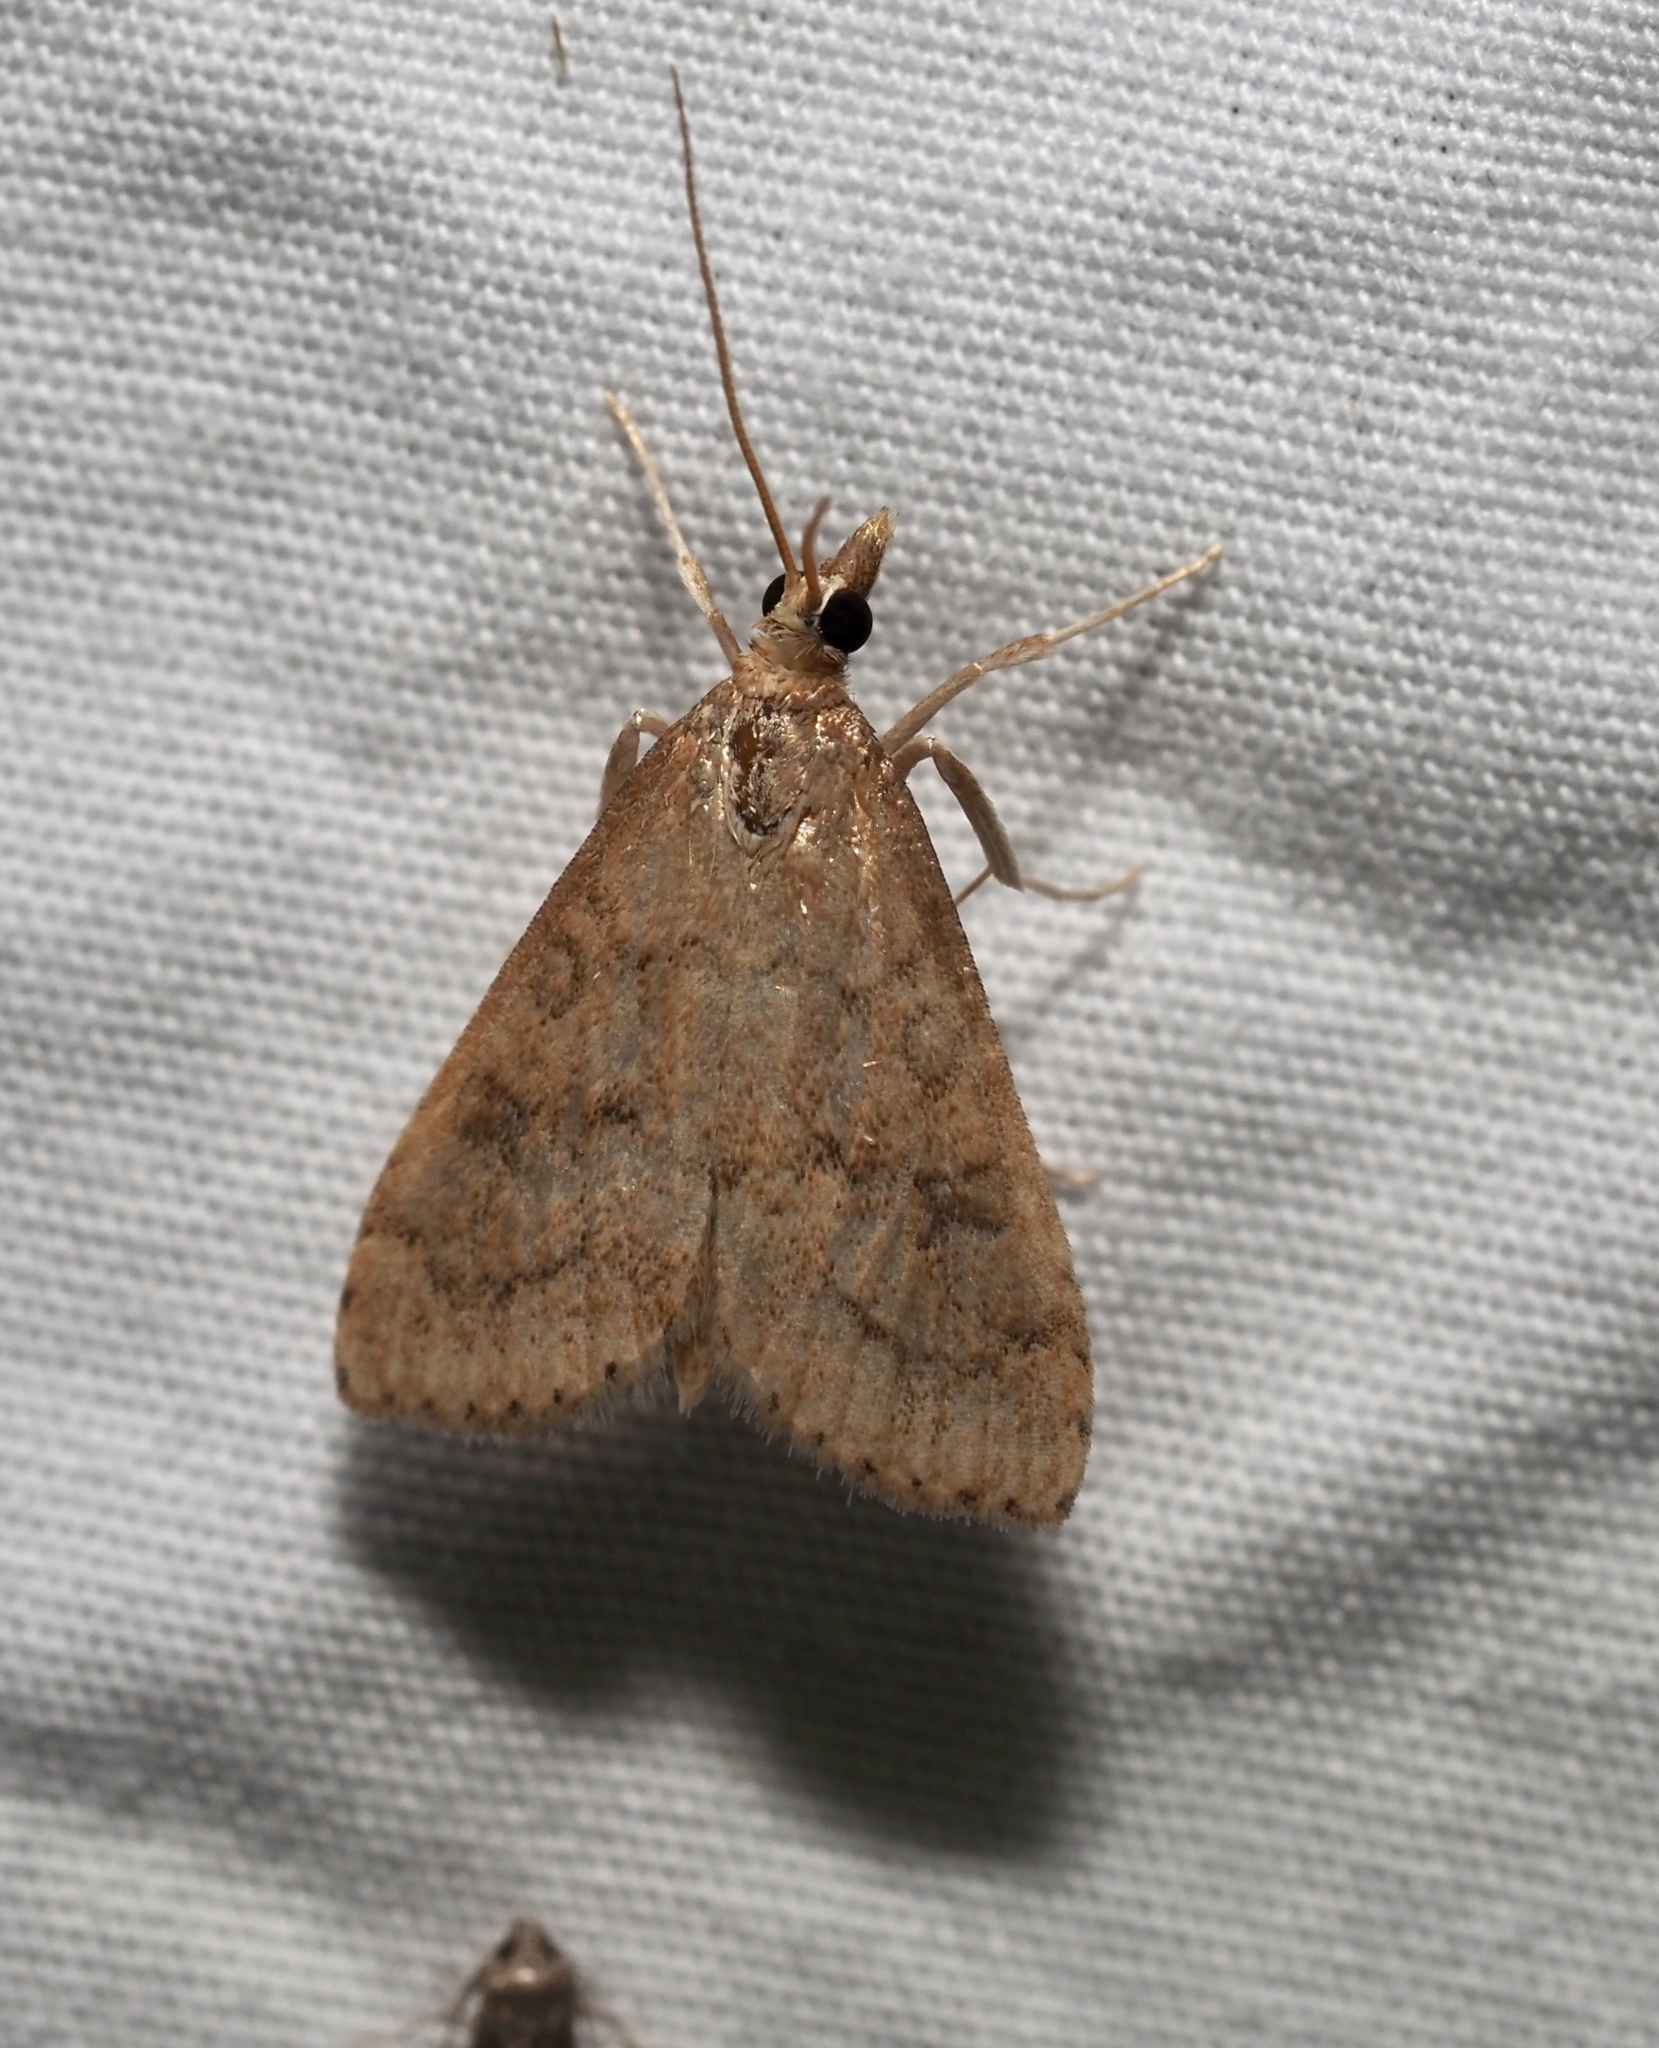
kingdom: Animalia
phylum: Arthropoda
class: Insecta
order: Lepidoptera
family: Crambidae
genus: Udea
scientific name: Udea rubigalis
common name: Celery leaftier moth
